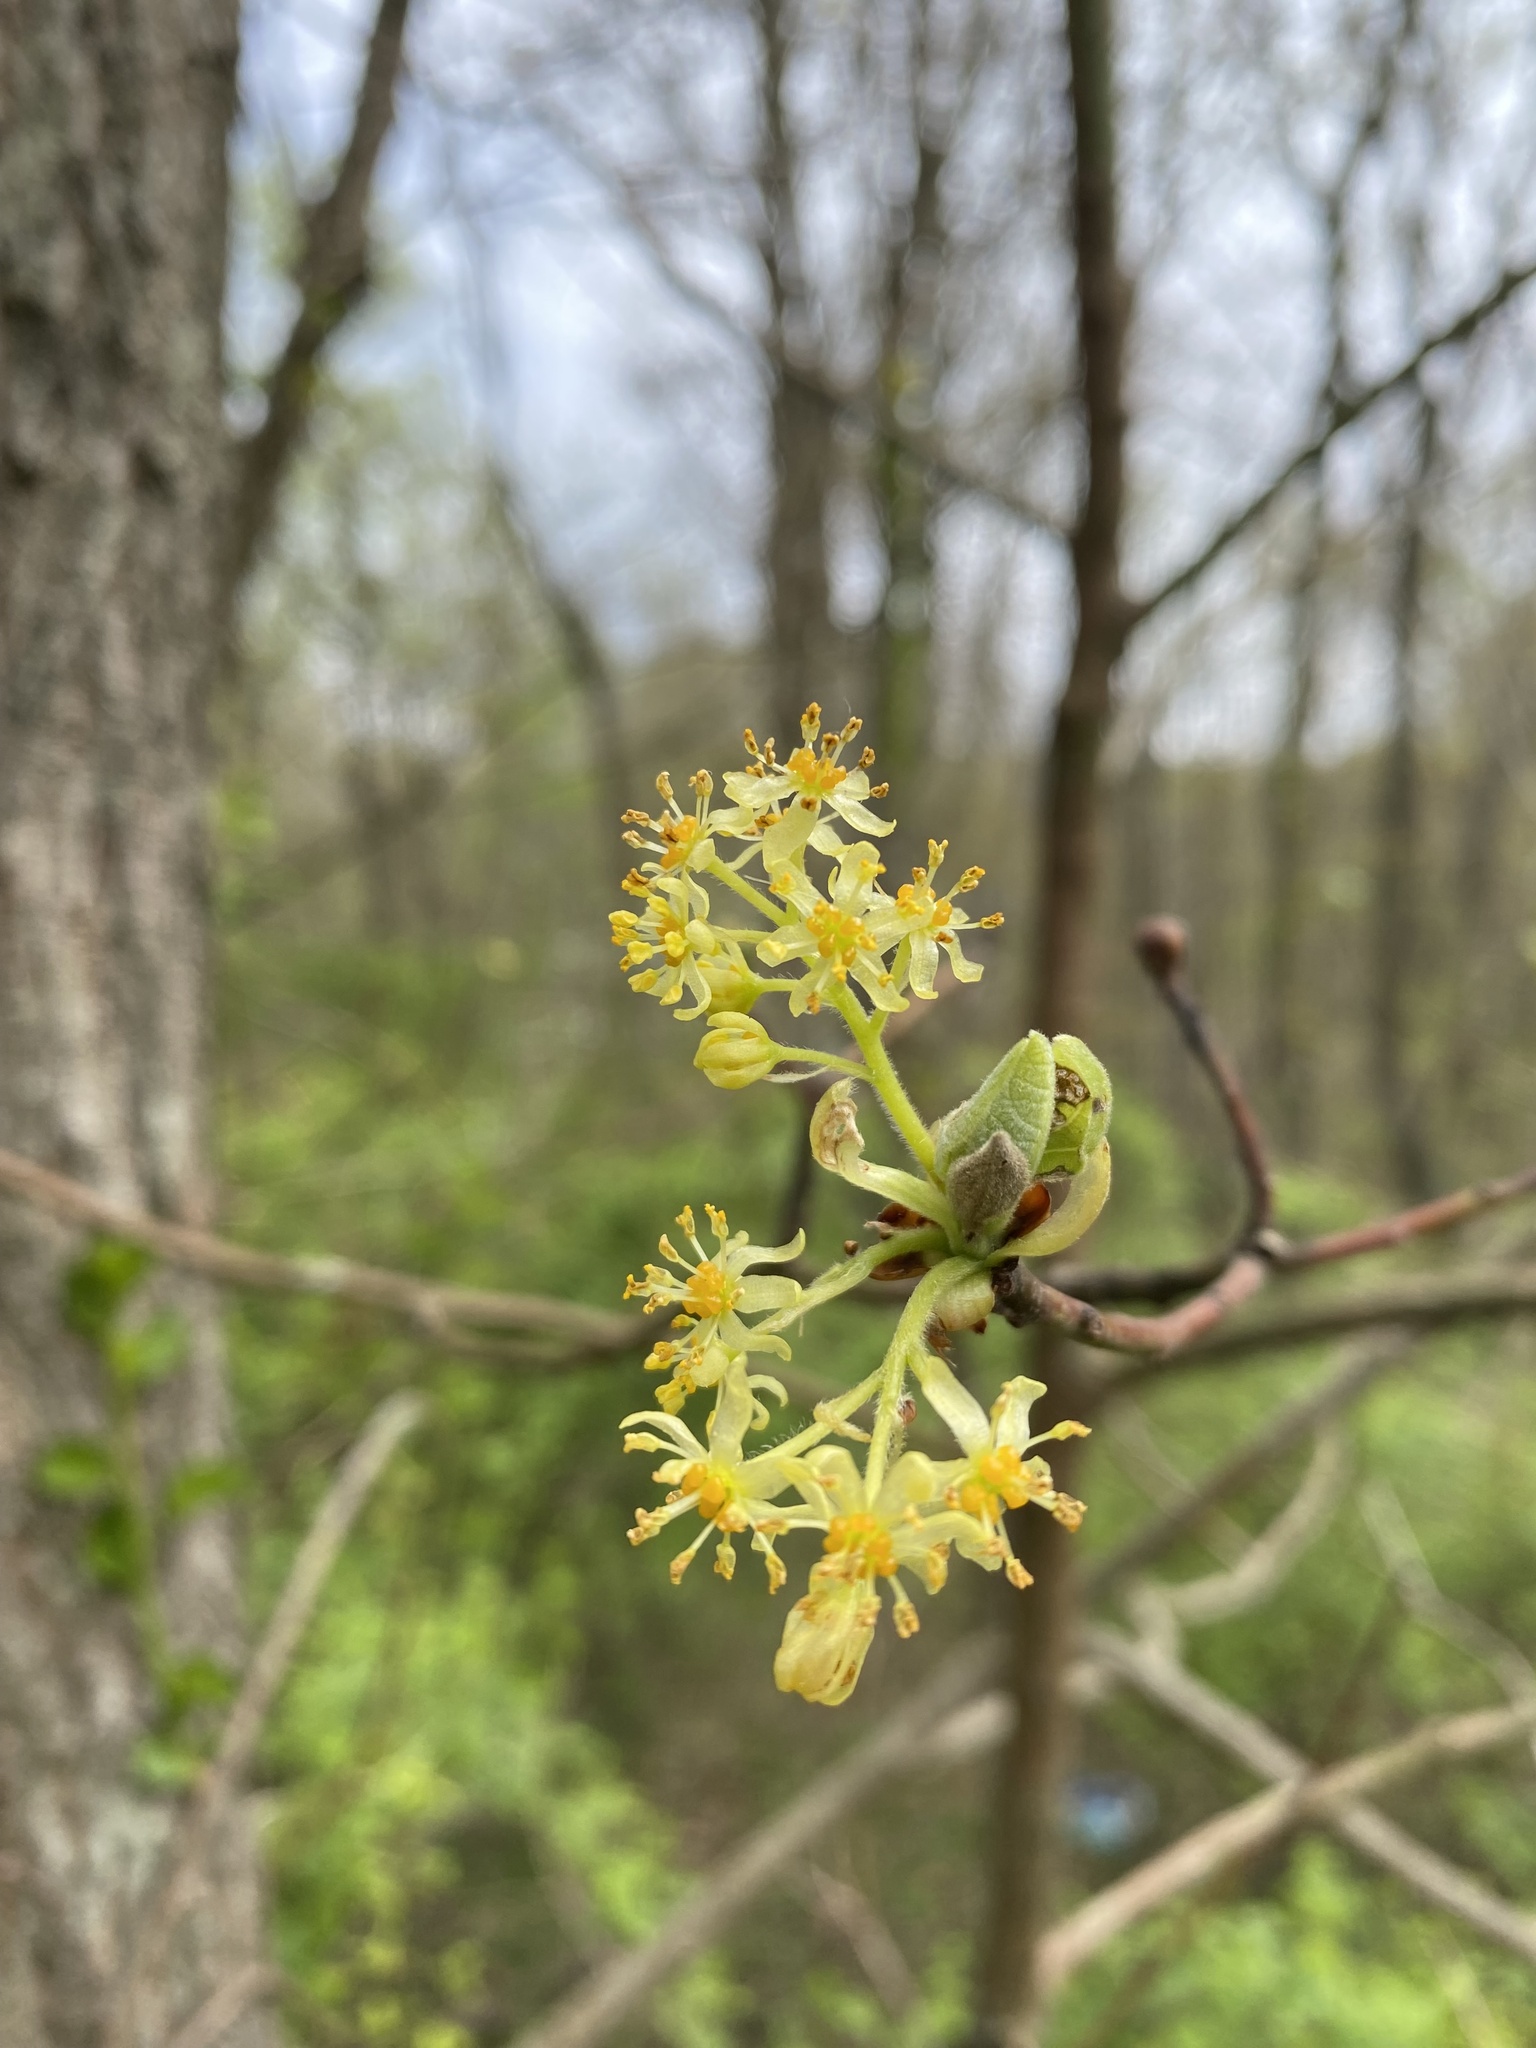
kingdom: Plantae
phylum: Tracheophyta
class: Magnoliopsida
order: Laurales
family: Lauraceae
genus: Sassafras
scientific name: Sassafras albidum
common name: Sassafras
